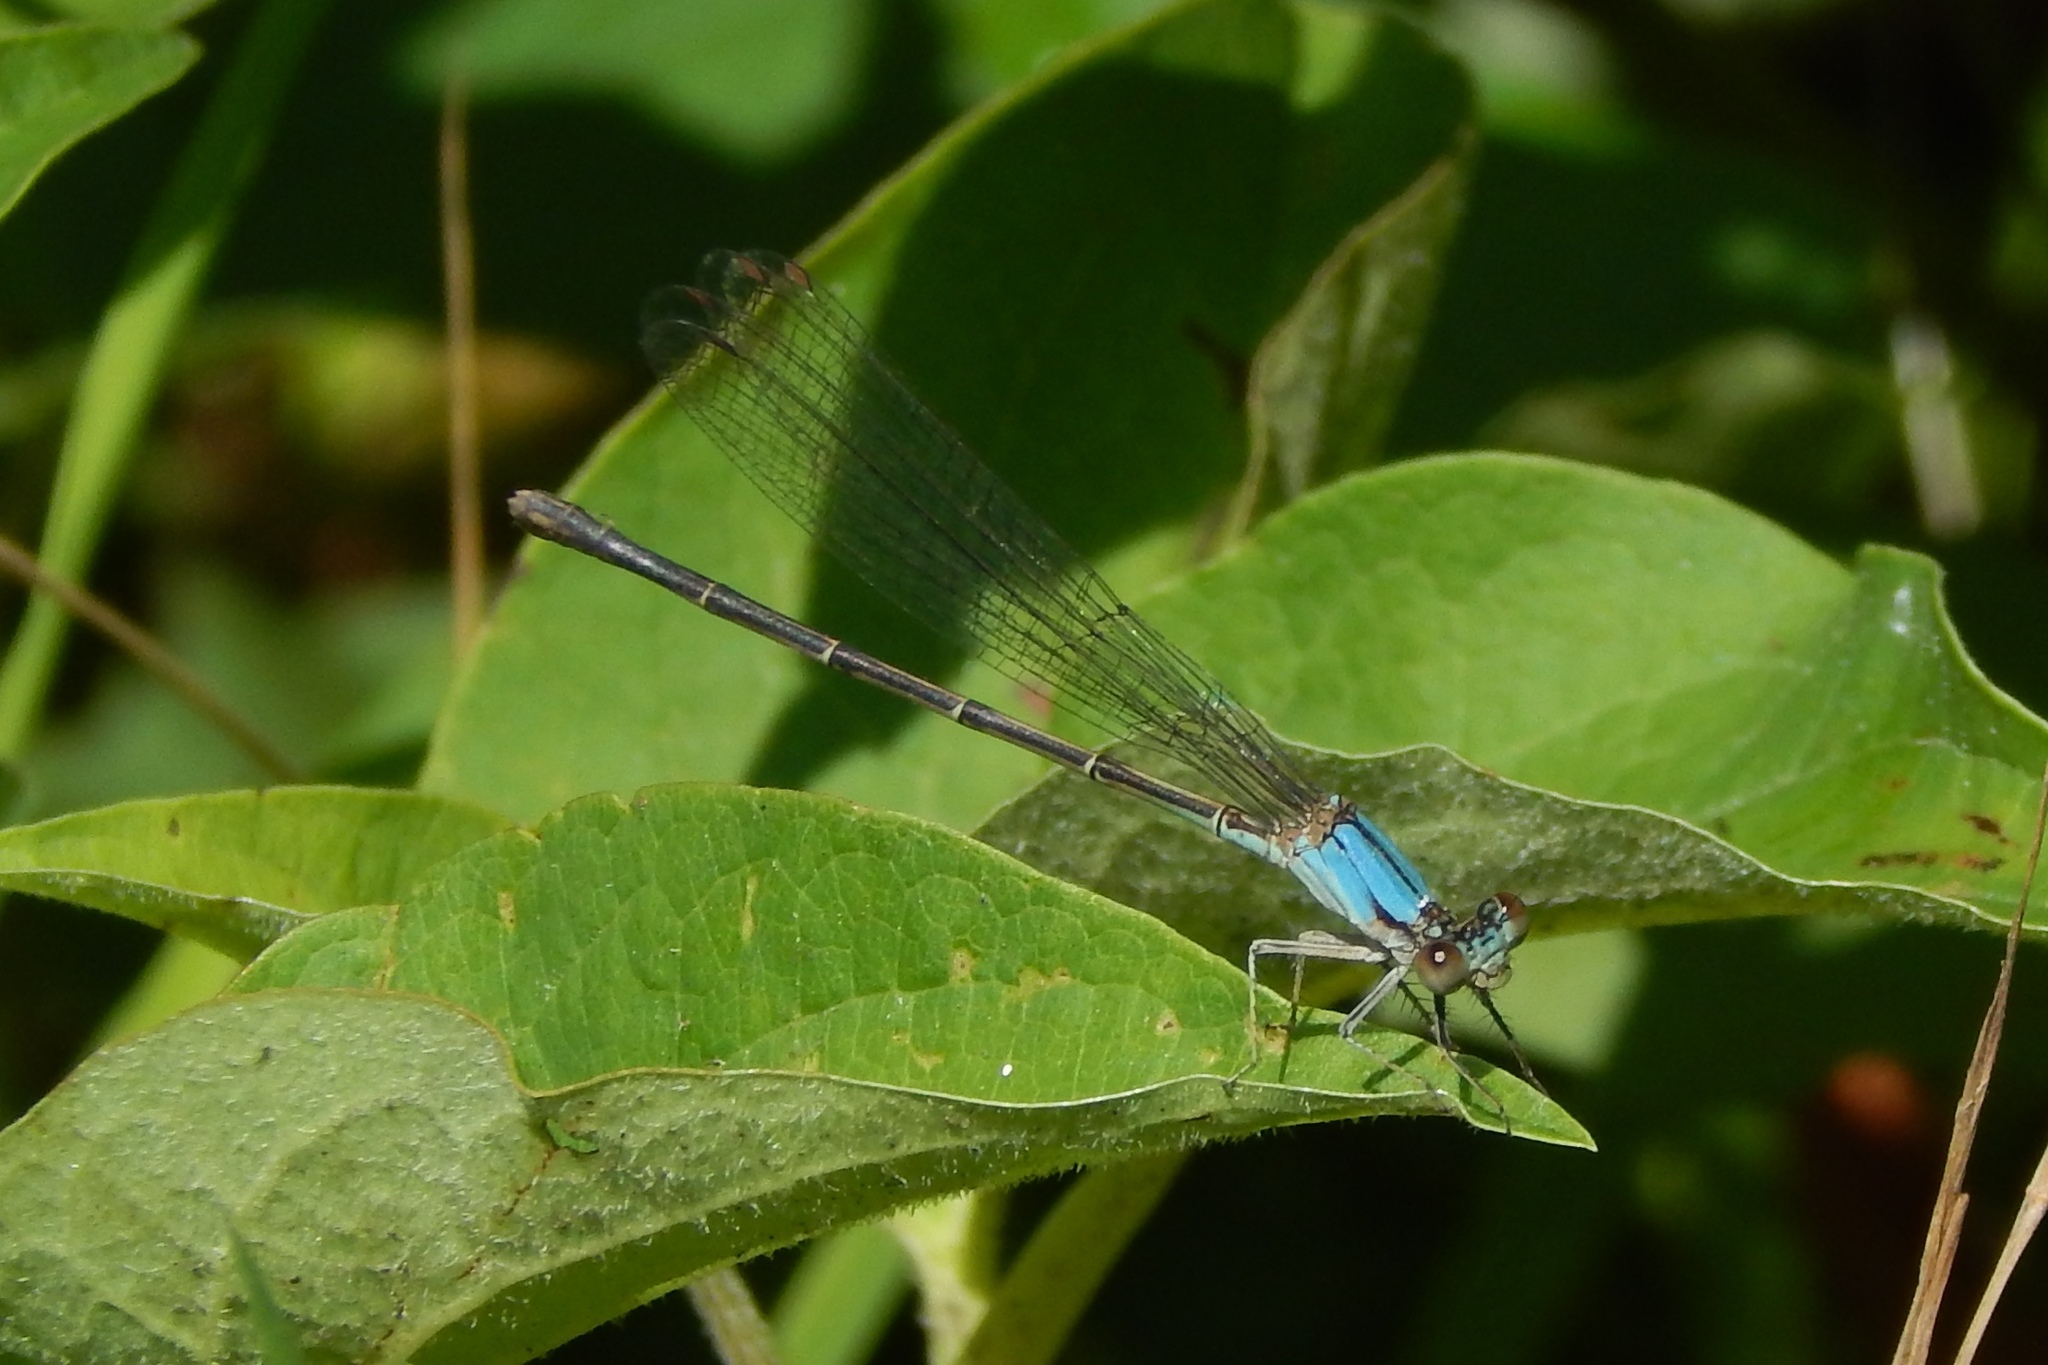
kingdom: Animalia
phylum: Arthropoda
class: Insecta
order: Odonata
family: Coenagrionidae
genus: Argia
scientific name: Argia apicalis
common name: Blue-fronted dancer
